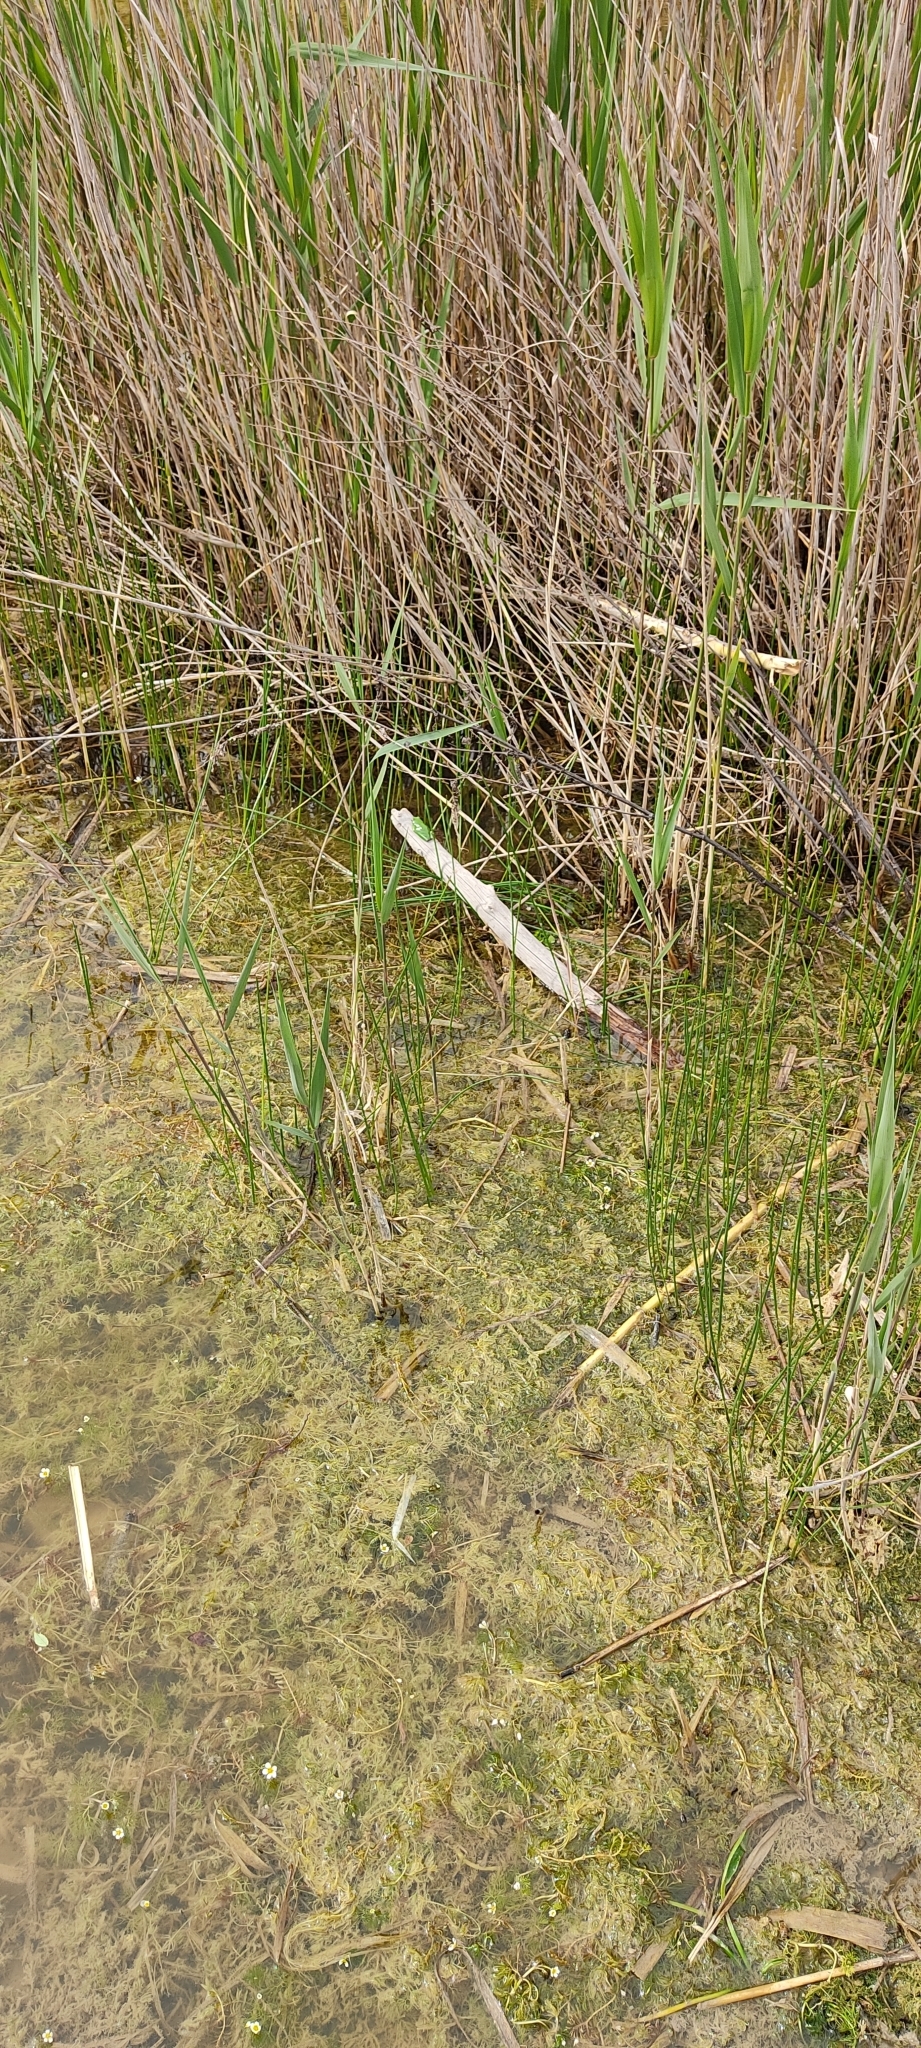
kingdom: Animalia
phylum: Chordata
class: Amphibia
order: Anura
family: Hylidae
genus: Hyla
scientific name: Hyla meridionalis
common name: Stripeless tree frog
